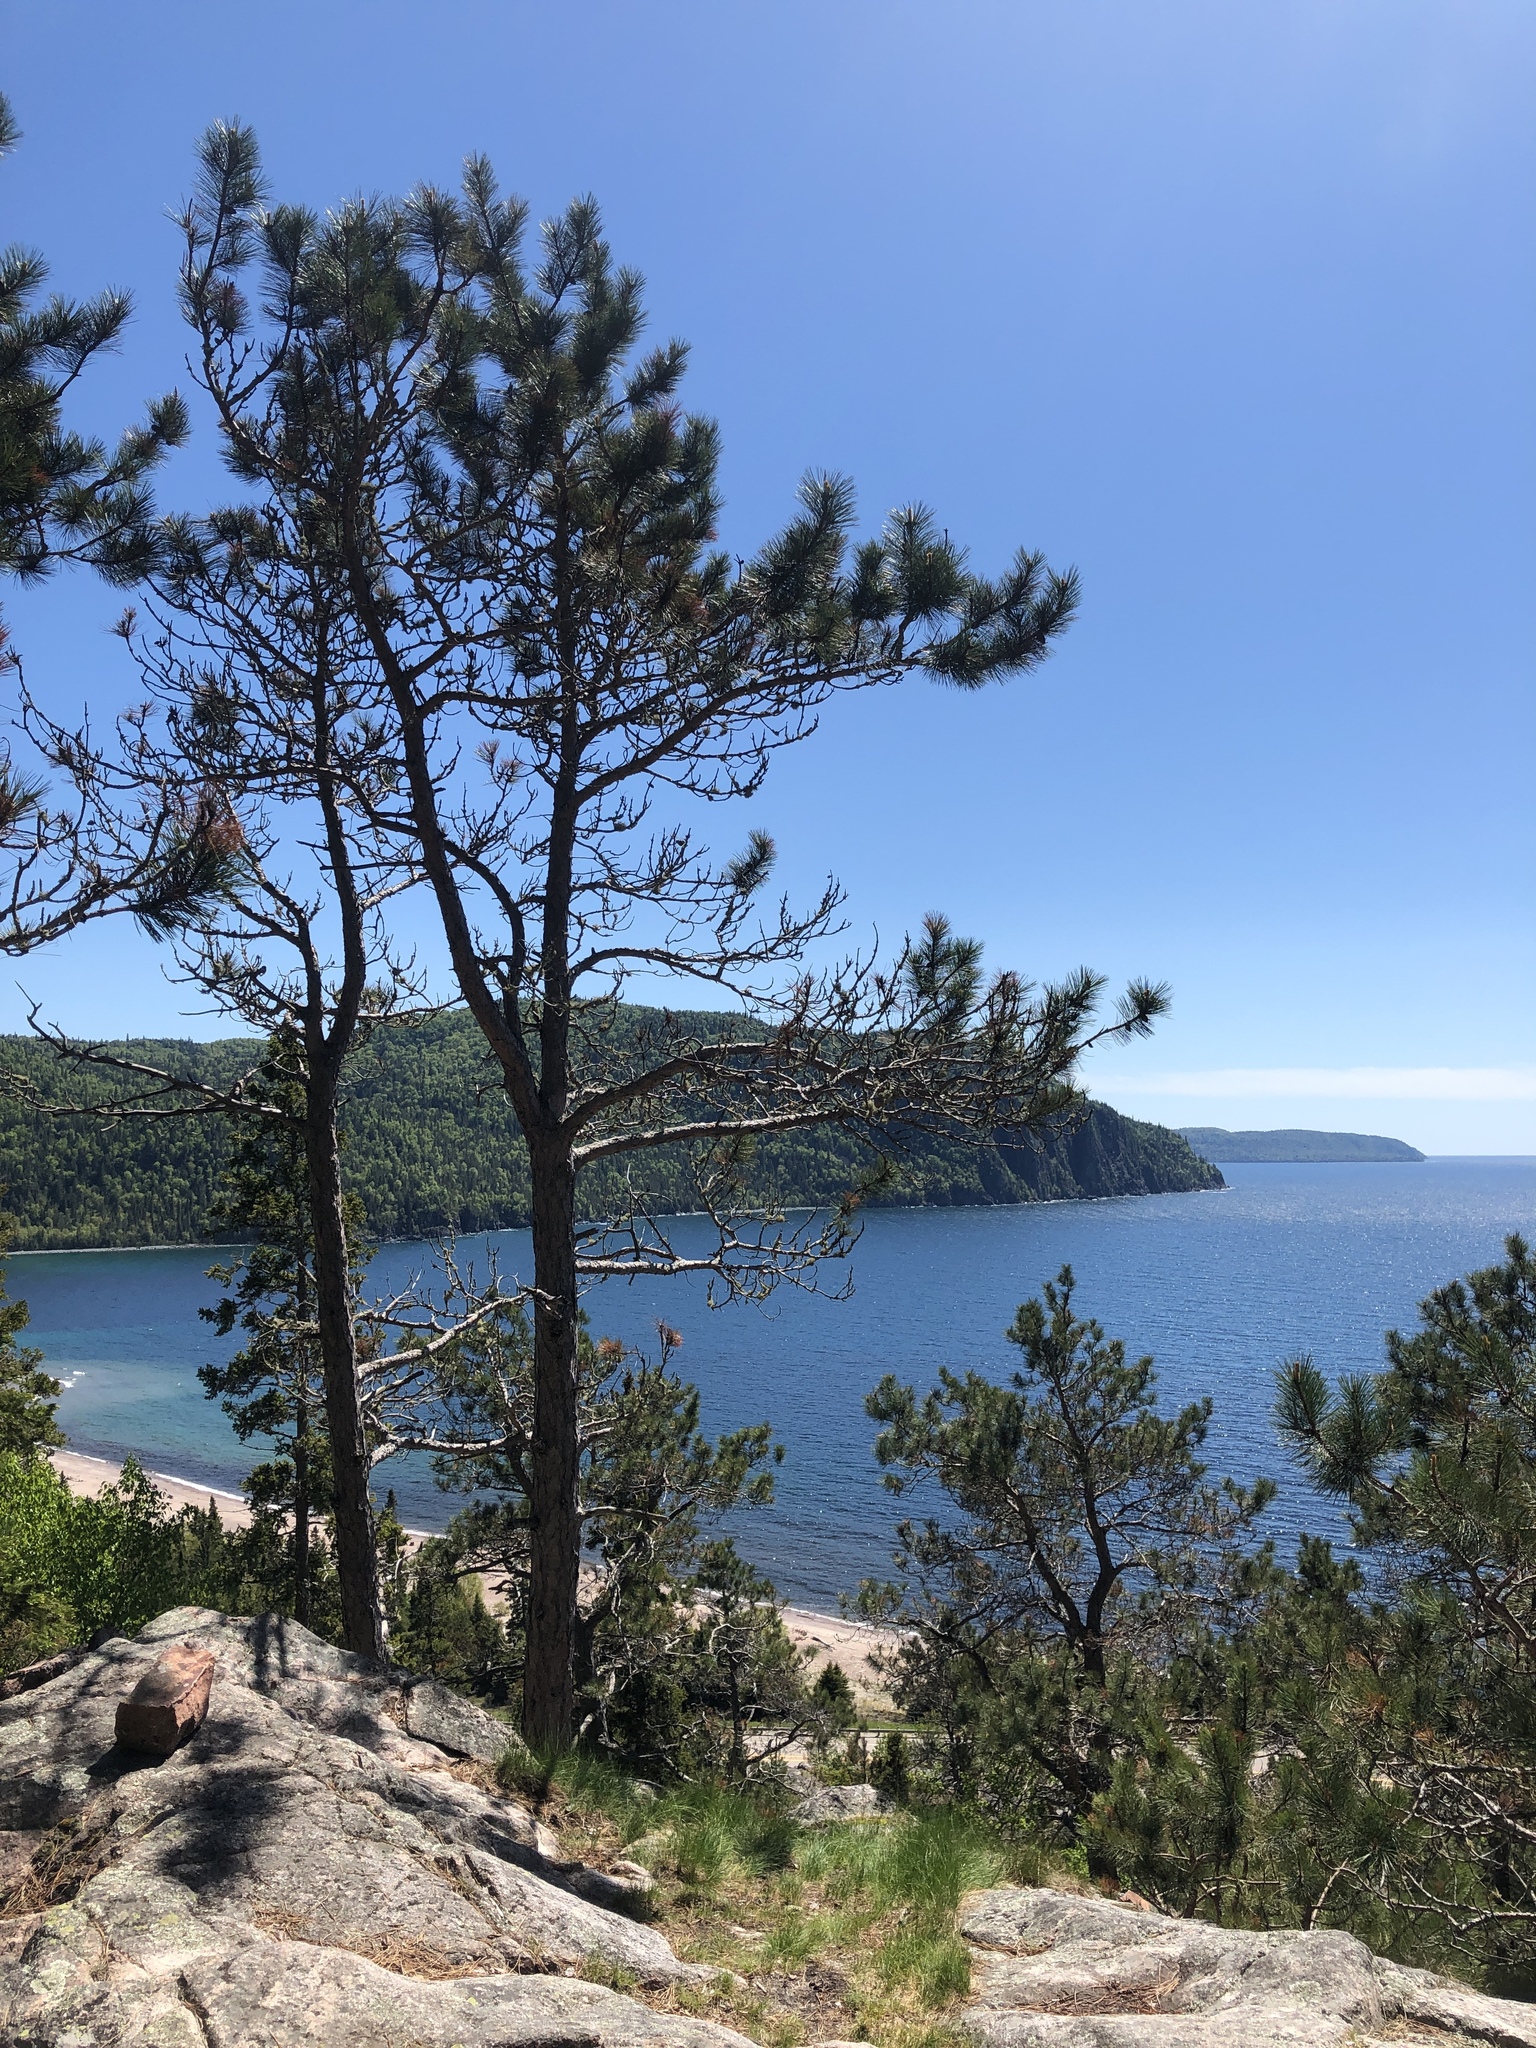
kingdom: Plantae
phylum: Tracheophyta
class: Pinopsida
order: Pinales
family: Pinaceae
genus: Pinus
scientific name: Pinus resinosa
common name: Norway pine
